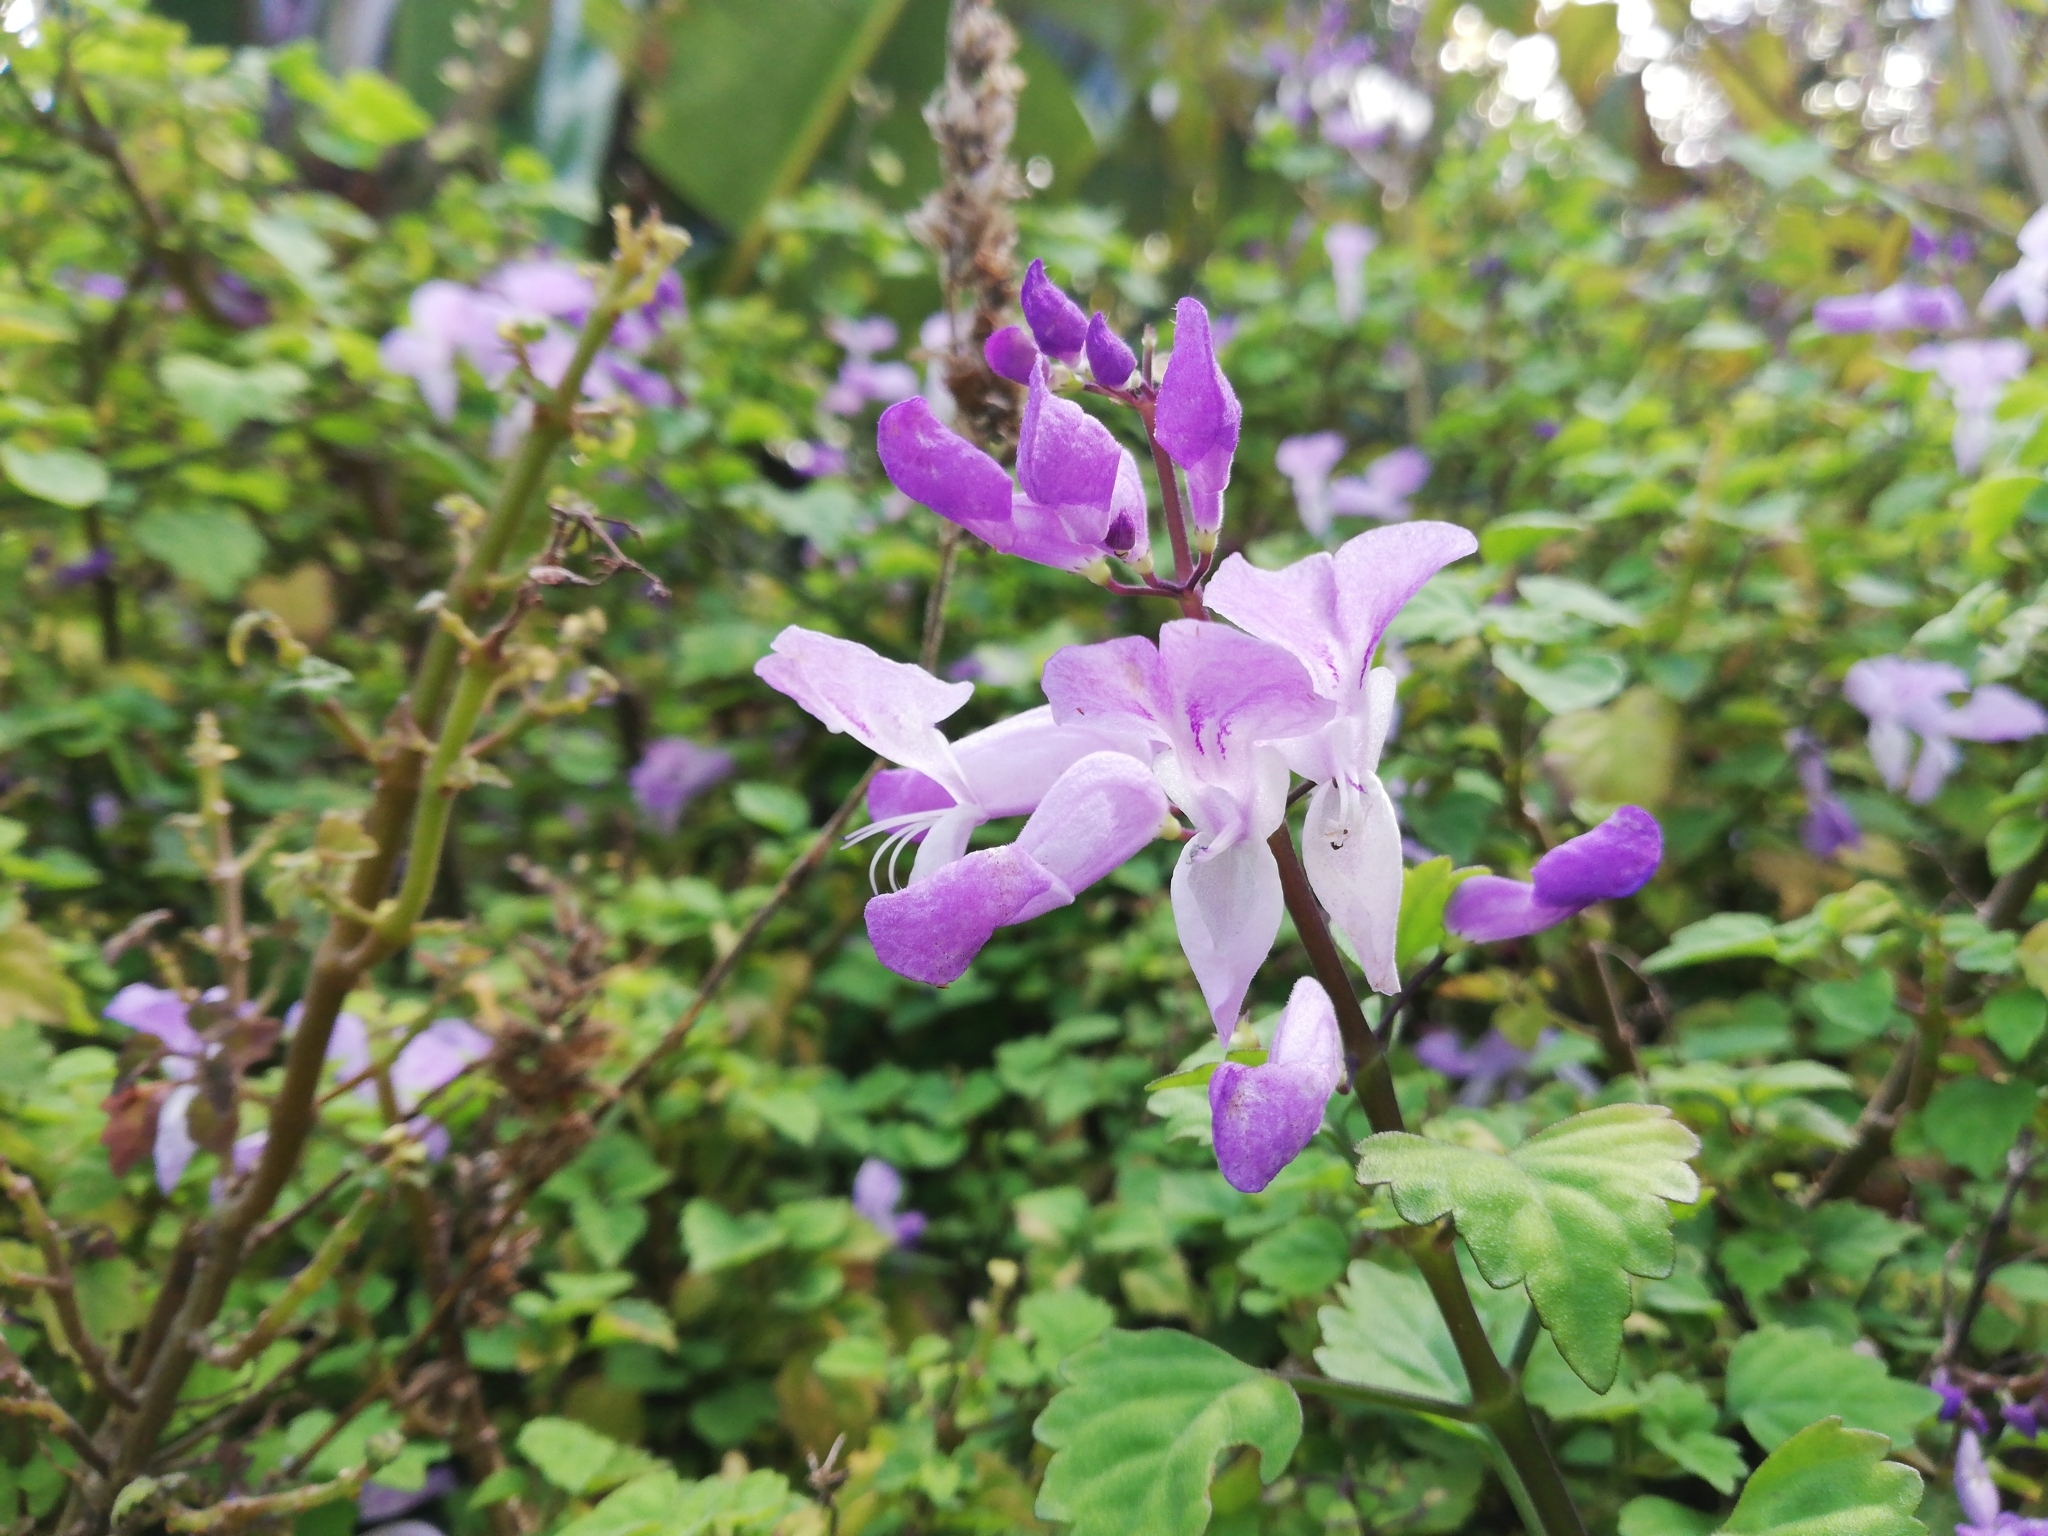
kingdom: Plantae
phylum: Tracheophyta
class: Magnoliopsida
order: Lamiales
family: Lamiaceae
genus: Plectranthus
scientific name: Plectranthus saccatus
